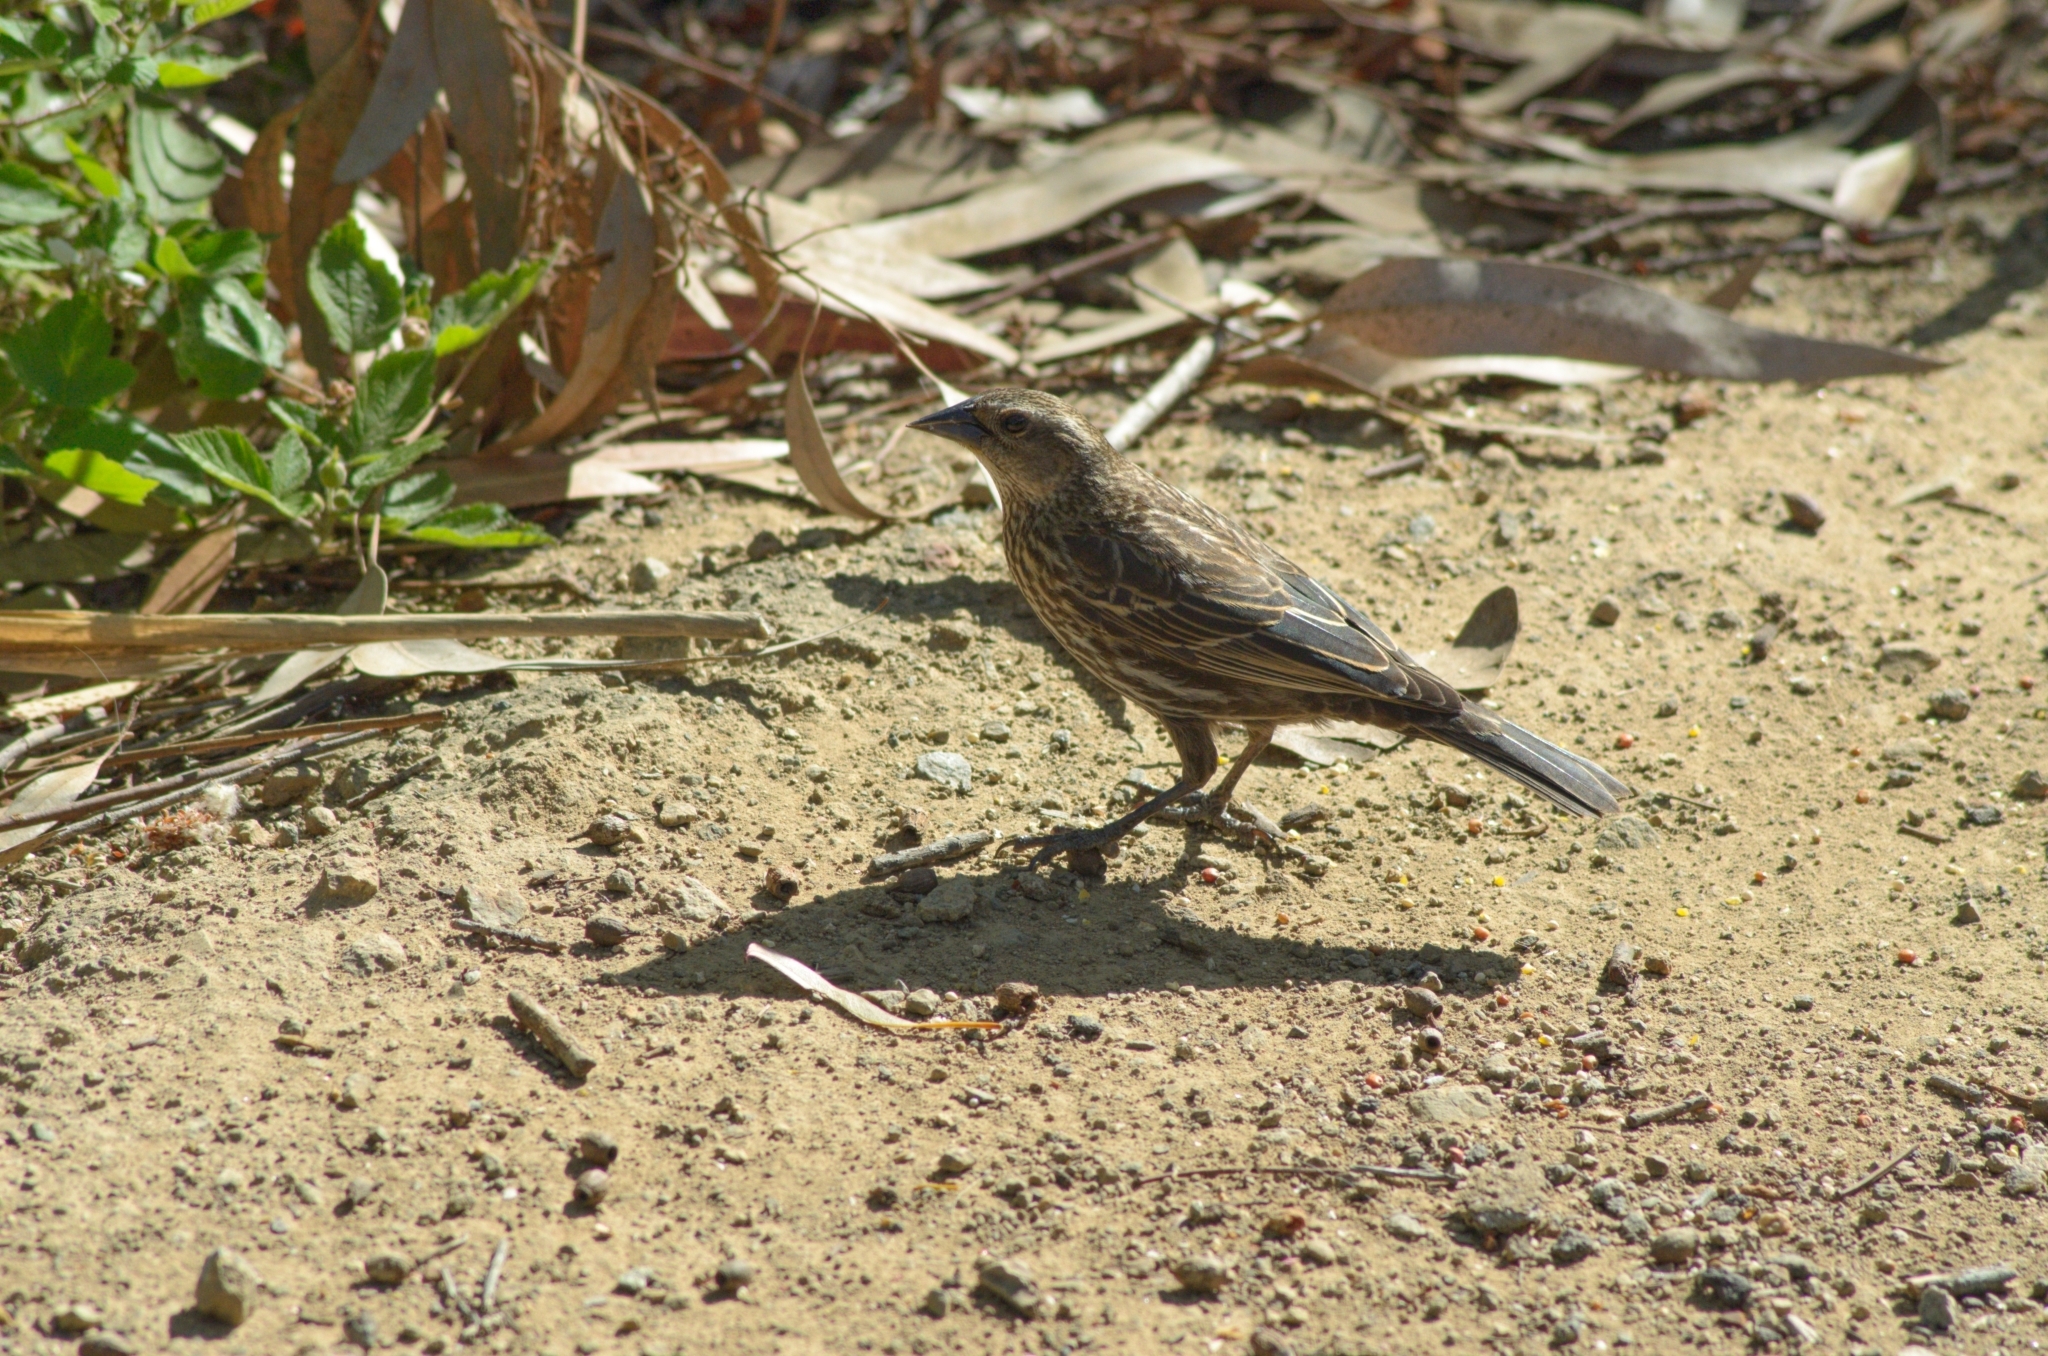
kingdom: Animalia
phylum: Chordata
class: Aves
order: Passeriformes
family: Icteridae
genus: Agelaius
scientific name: Agelaius phoeniceus
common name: Red-winged blackbird
